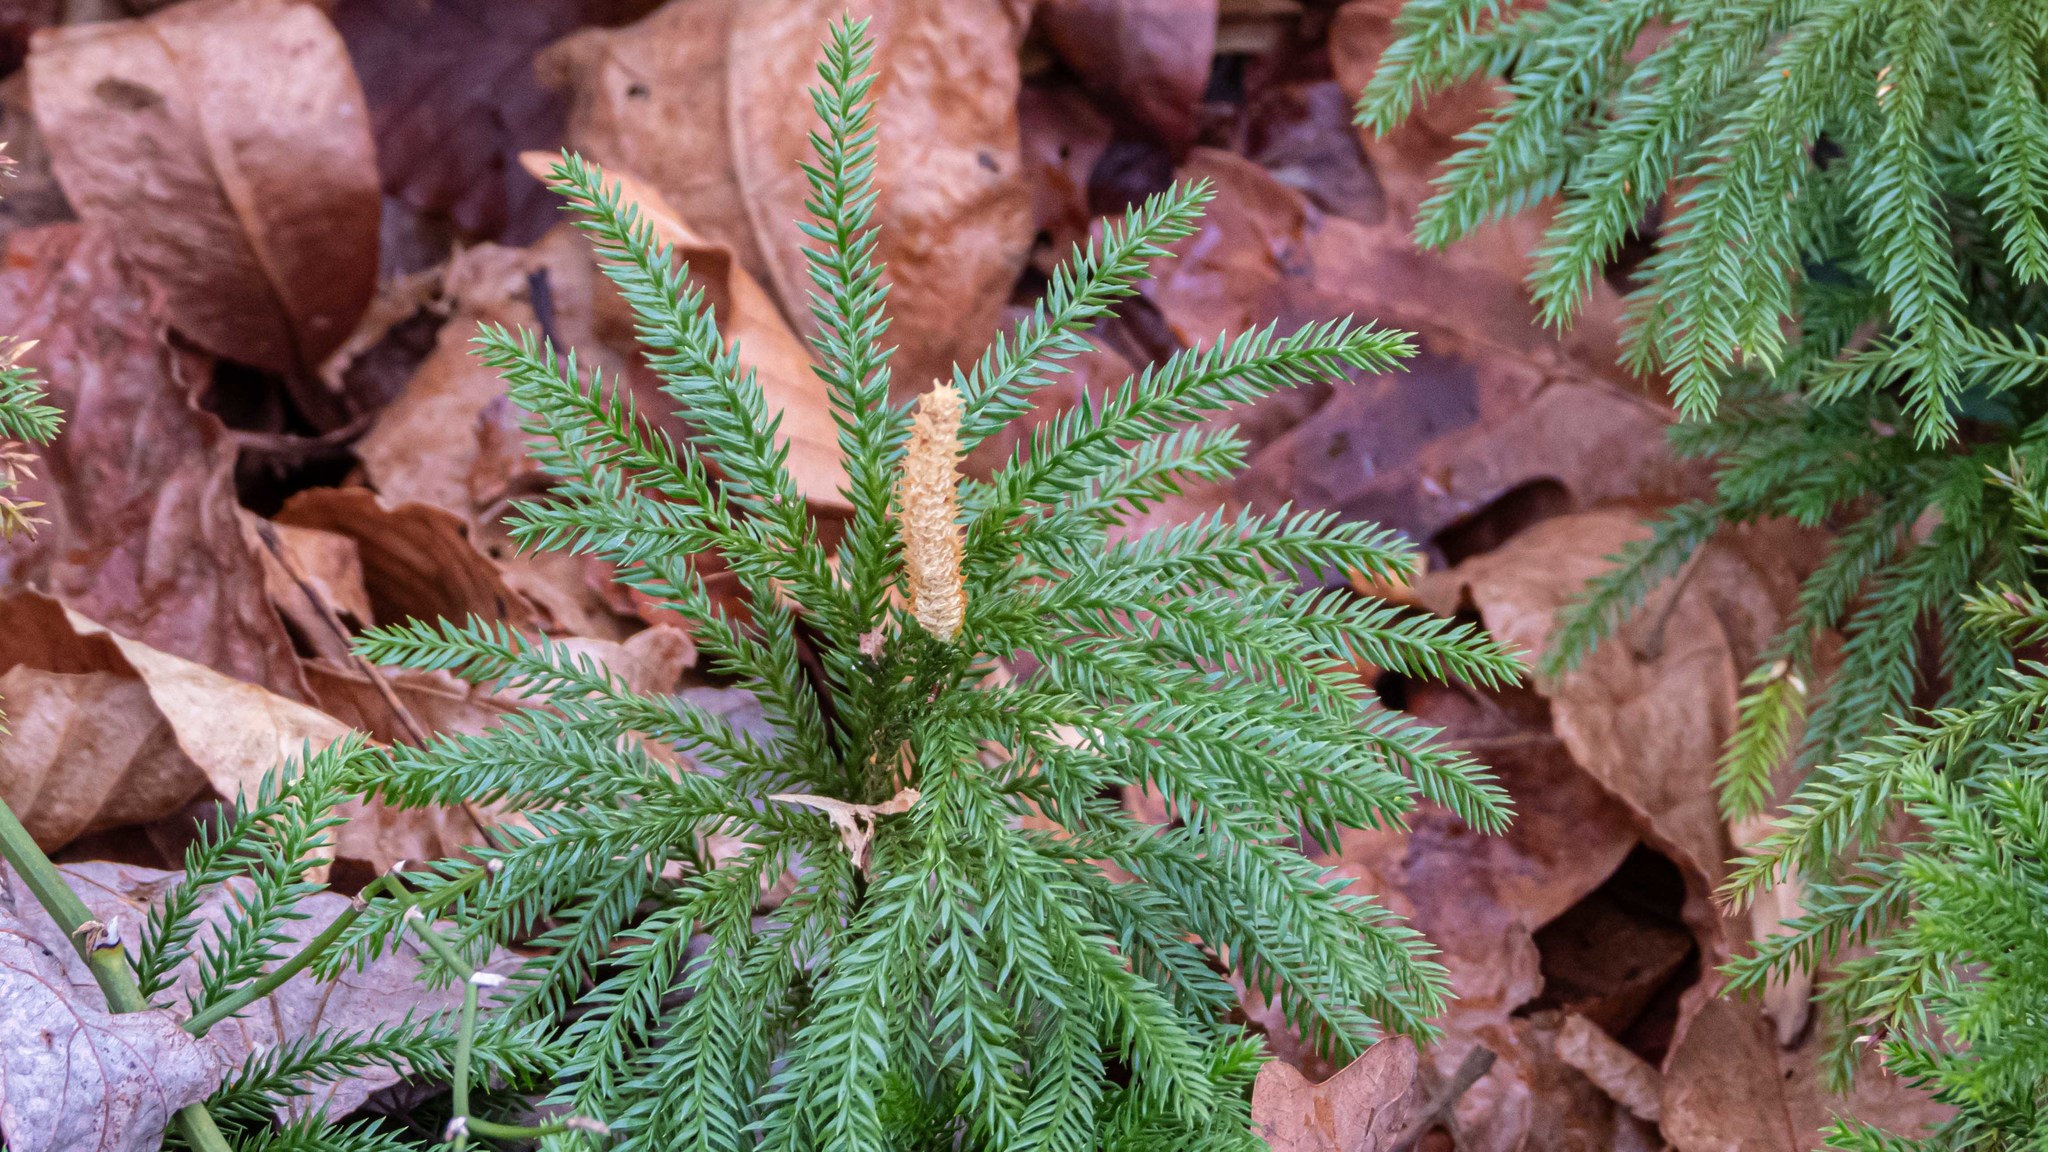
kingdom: Plantae
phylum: Tracheophyta
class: Lycopodiopsida
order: Lycopodiales
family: Lycopodiaceae
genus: Dendrolycopodium
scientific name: Dendrolycopodium obscurum
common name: Common ground-pine
